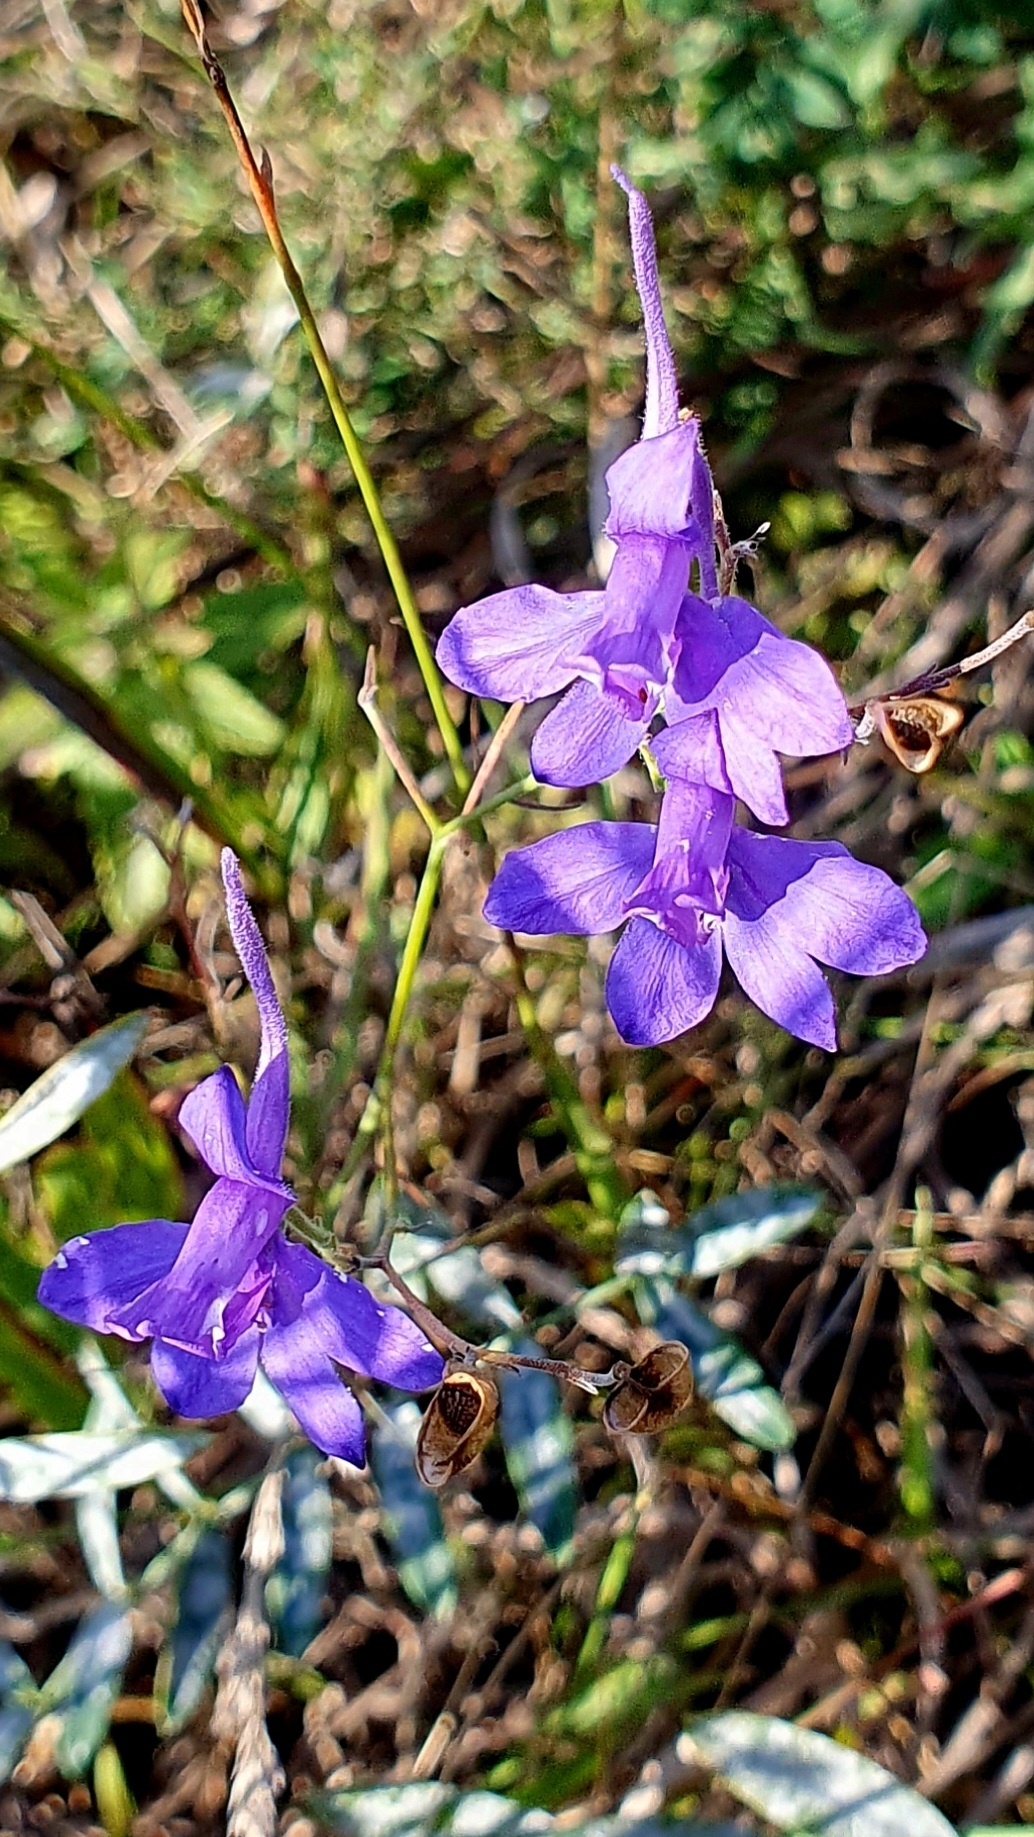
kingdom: Plantae
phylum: Tracheophyta
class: Magnoliopsida
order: Ranunculales
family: Ranunculaceae
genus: Delphinium
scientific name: Delphinium consolida
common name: Branching larkspur
